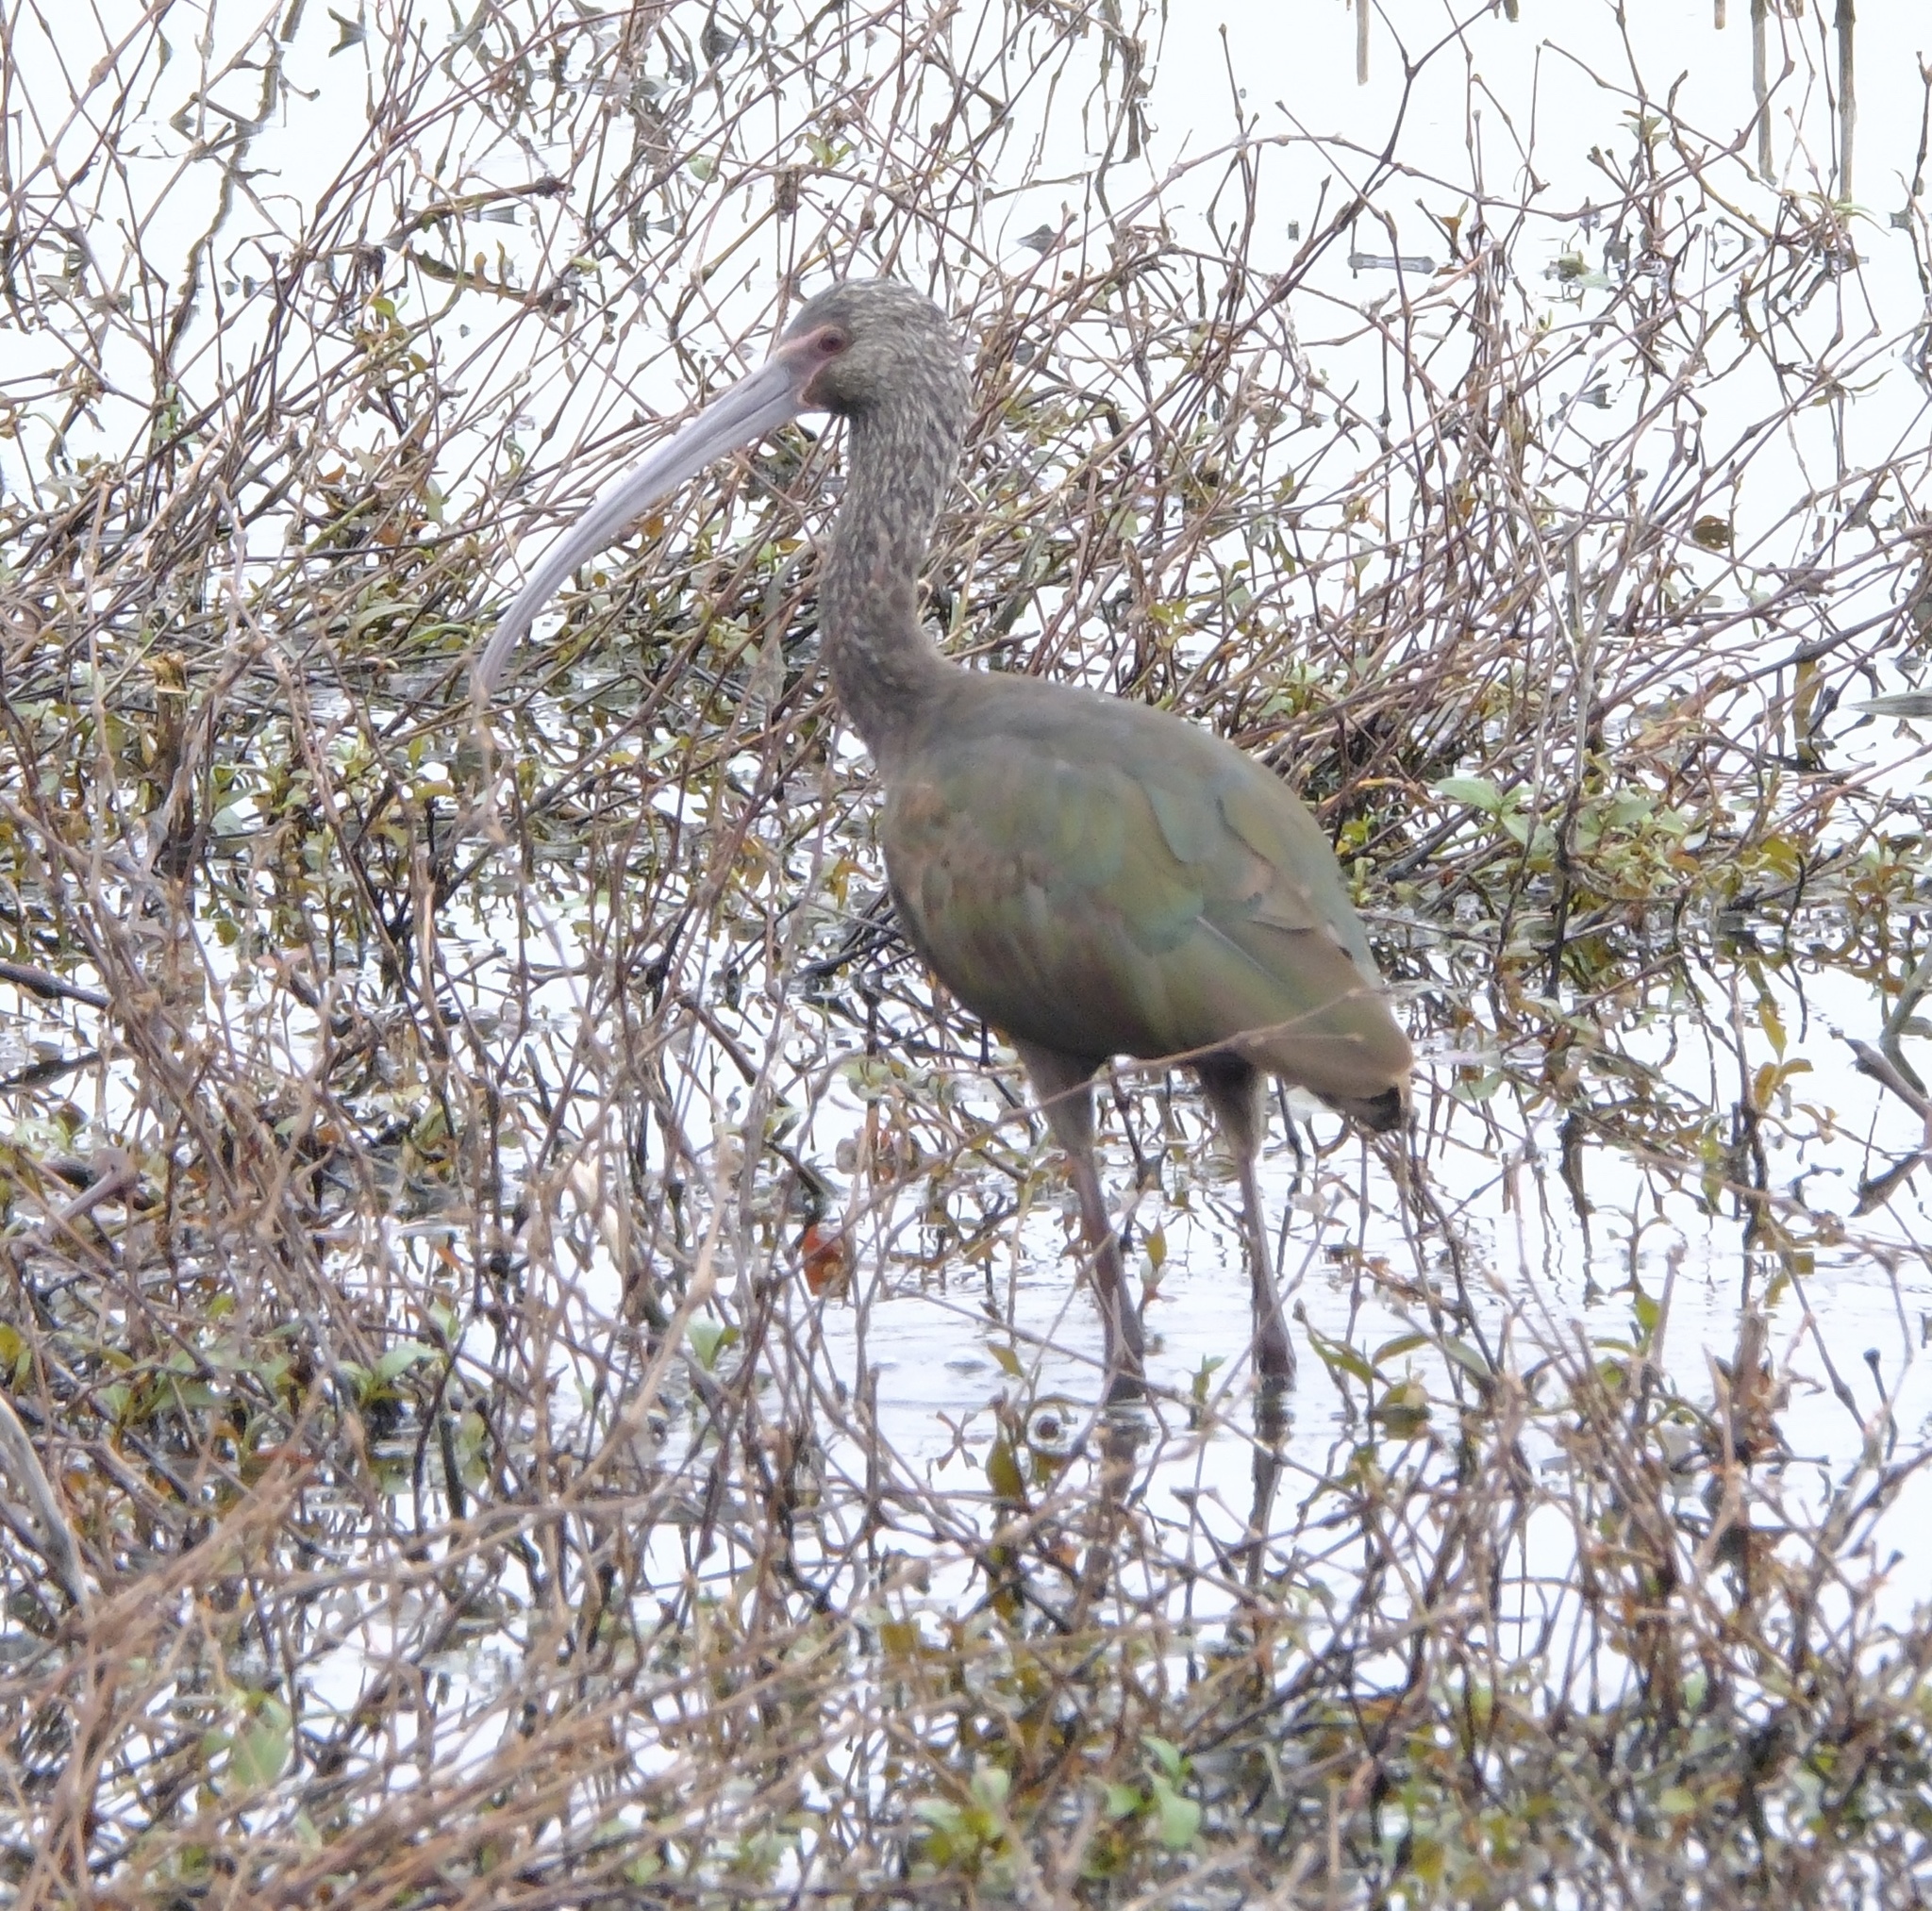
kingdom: Animalia
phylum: Chordata
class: Aves
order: Pelecaniformes
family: Threskiornithidae
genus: Plegadis
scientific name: Plegadis chihi
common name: White-faced ibis
